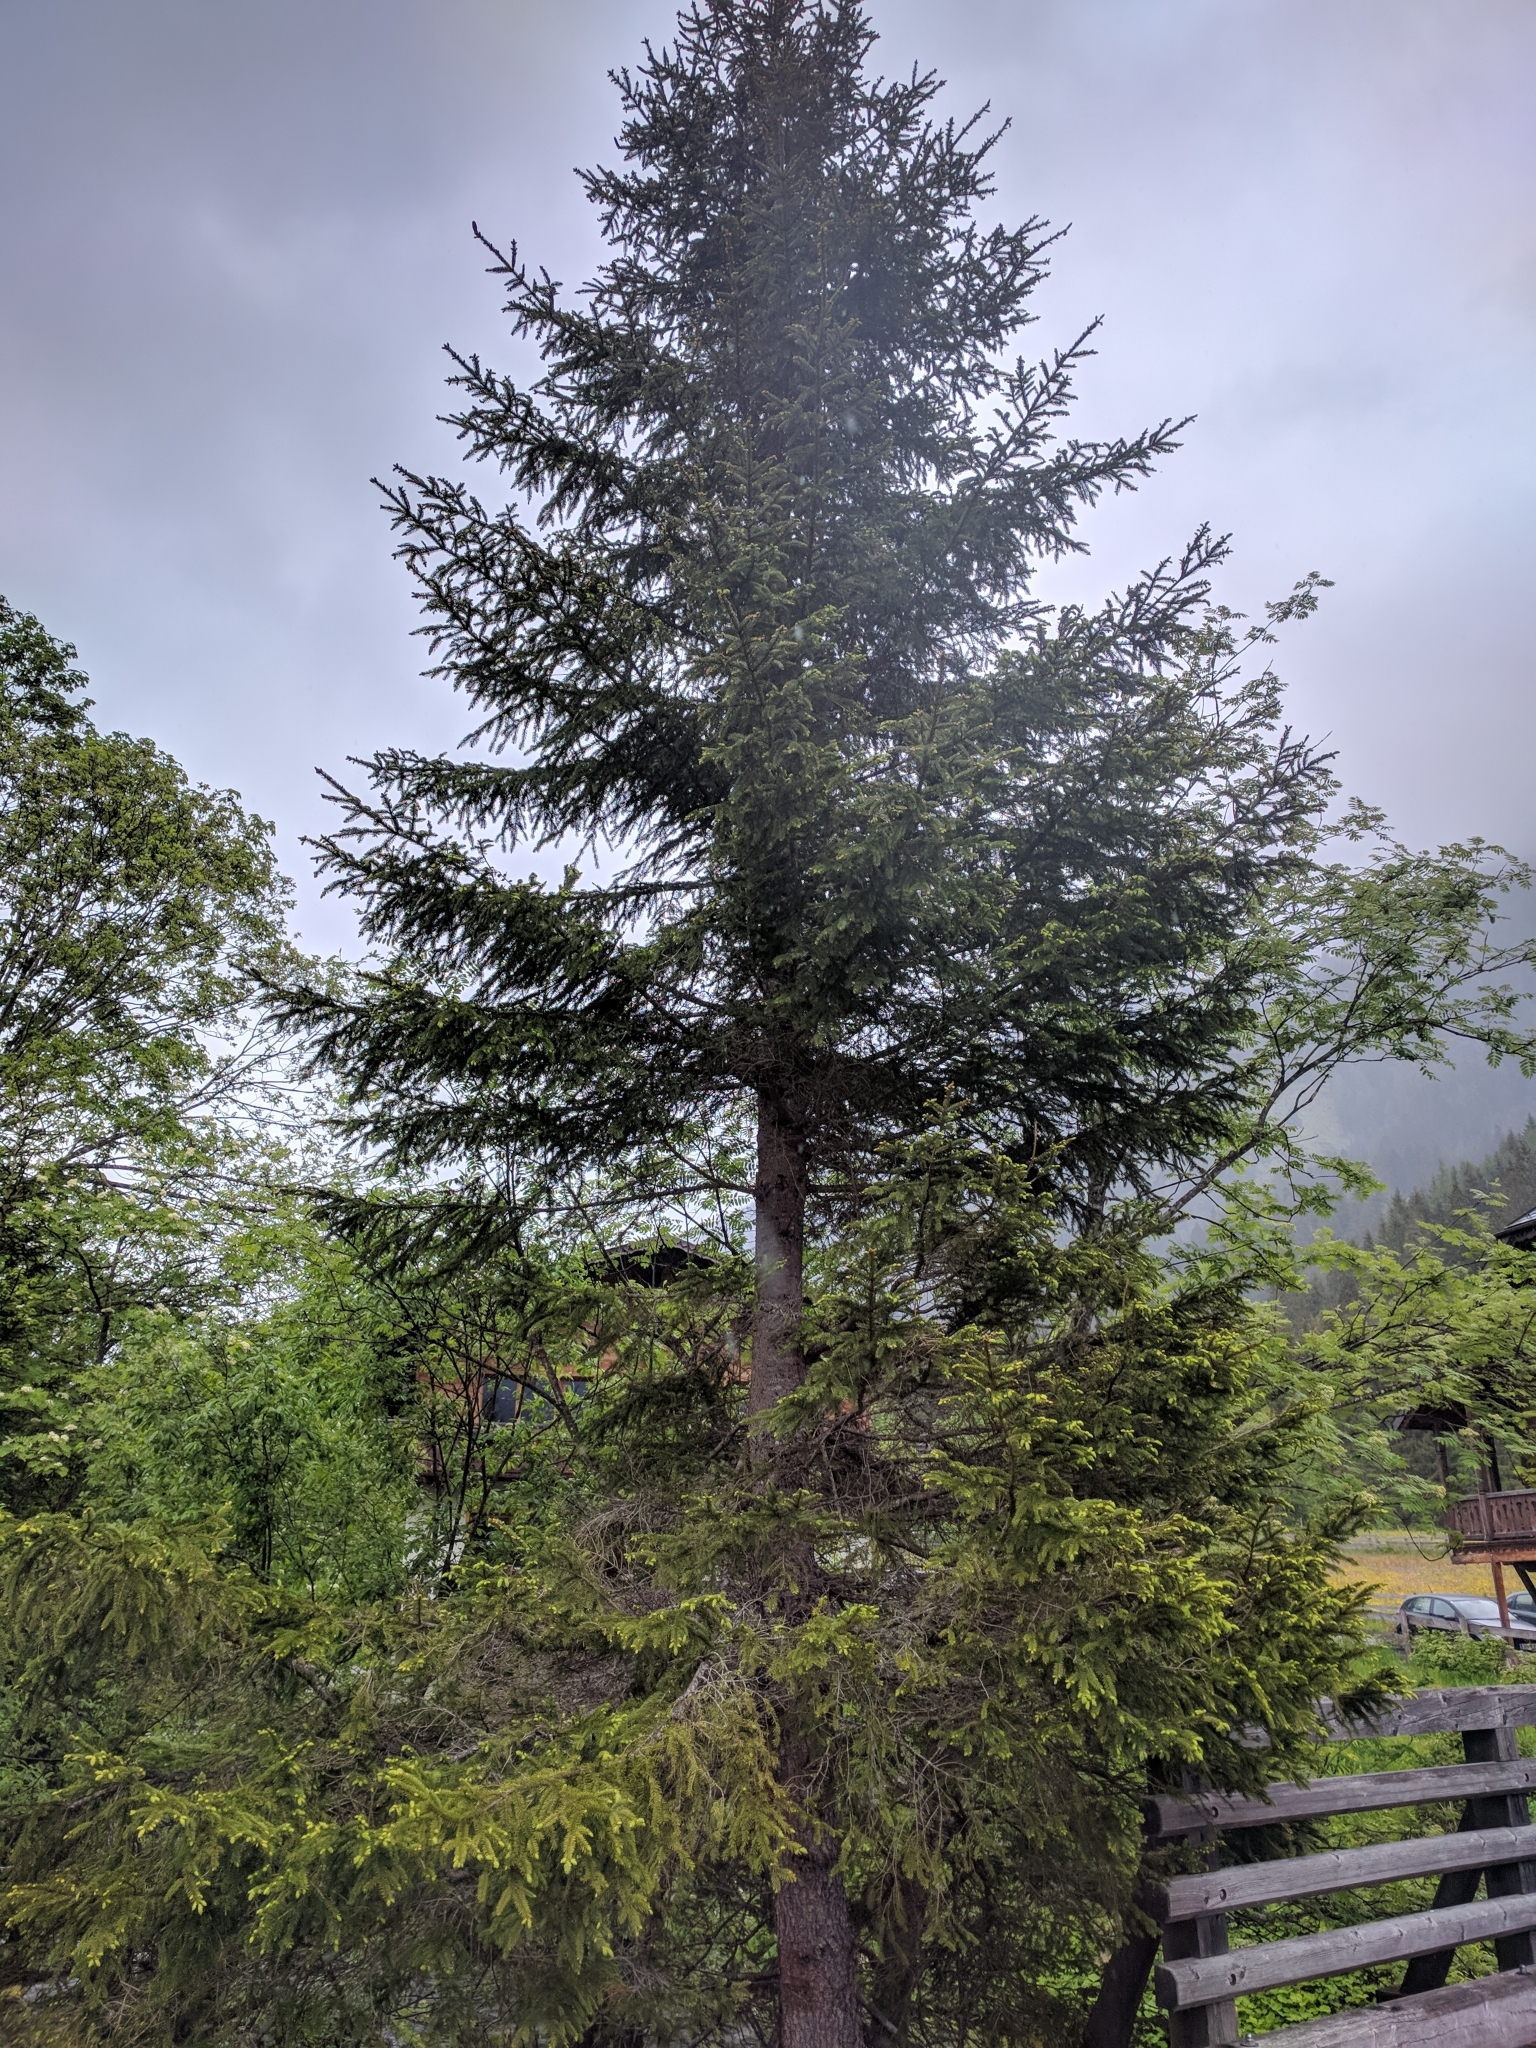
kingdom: Plantae
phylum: Tracheophyta
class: Pinopsida
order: Pinales
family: Pinaceae
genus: Picea
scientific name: Picea abies
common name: Norway spruce
